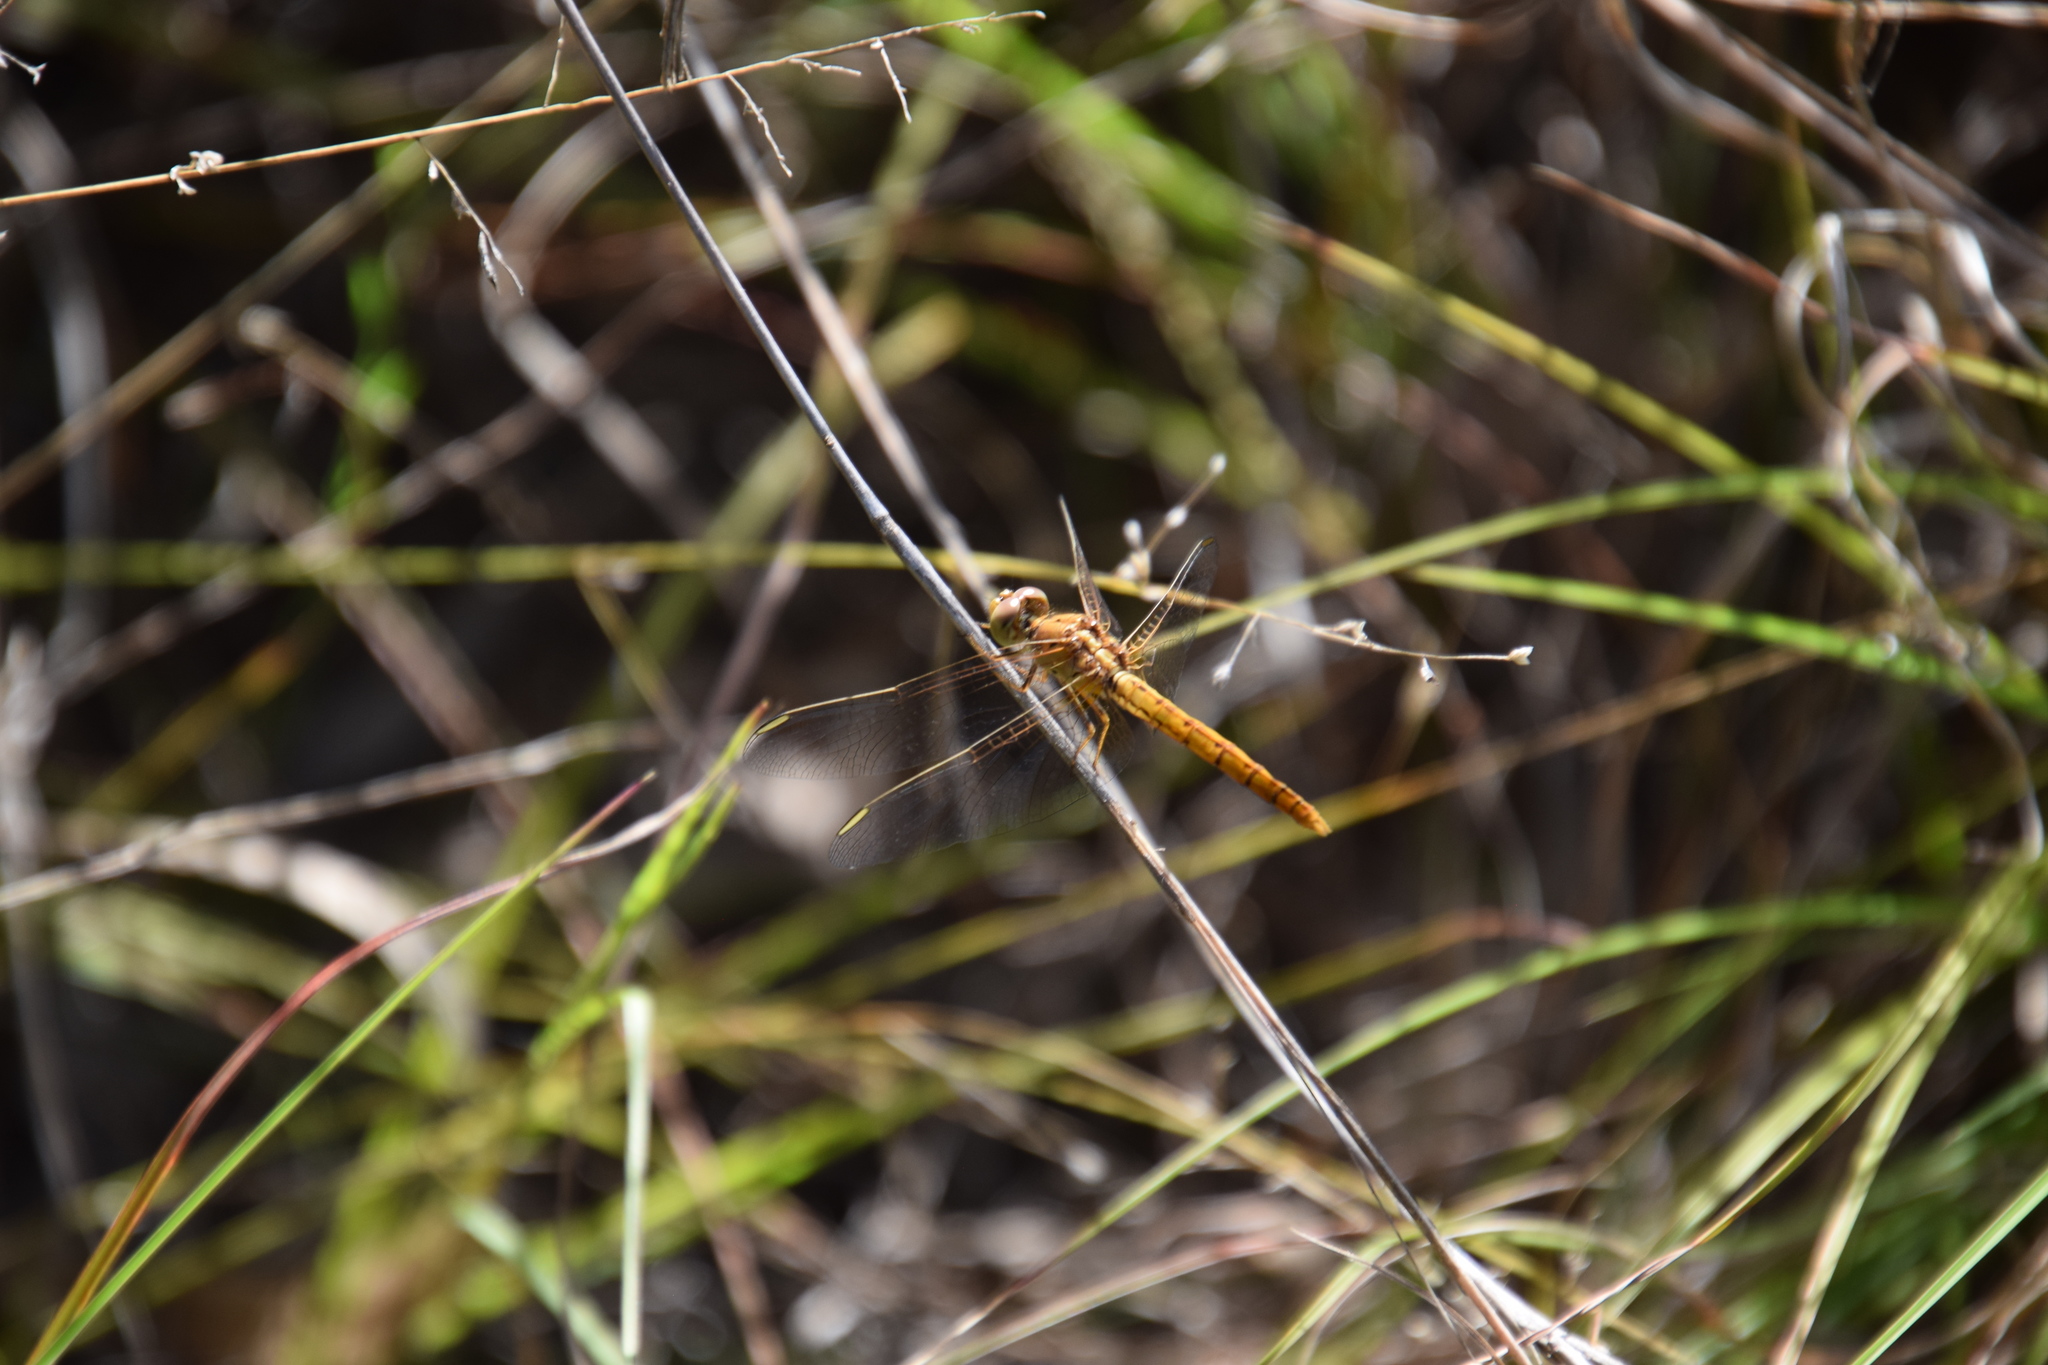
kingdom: Animalia
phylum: Arthropoda
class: Insecta
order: Odonata
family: Libellulidae
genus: Diplacodes
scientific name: Diplacodes haematodes
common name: Scarlet percher
